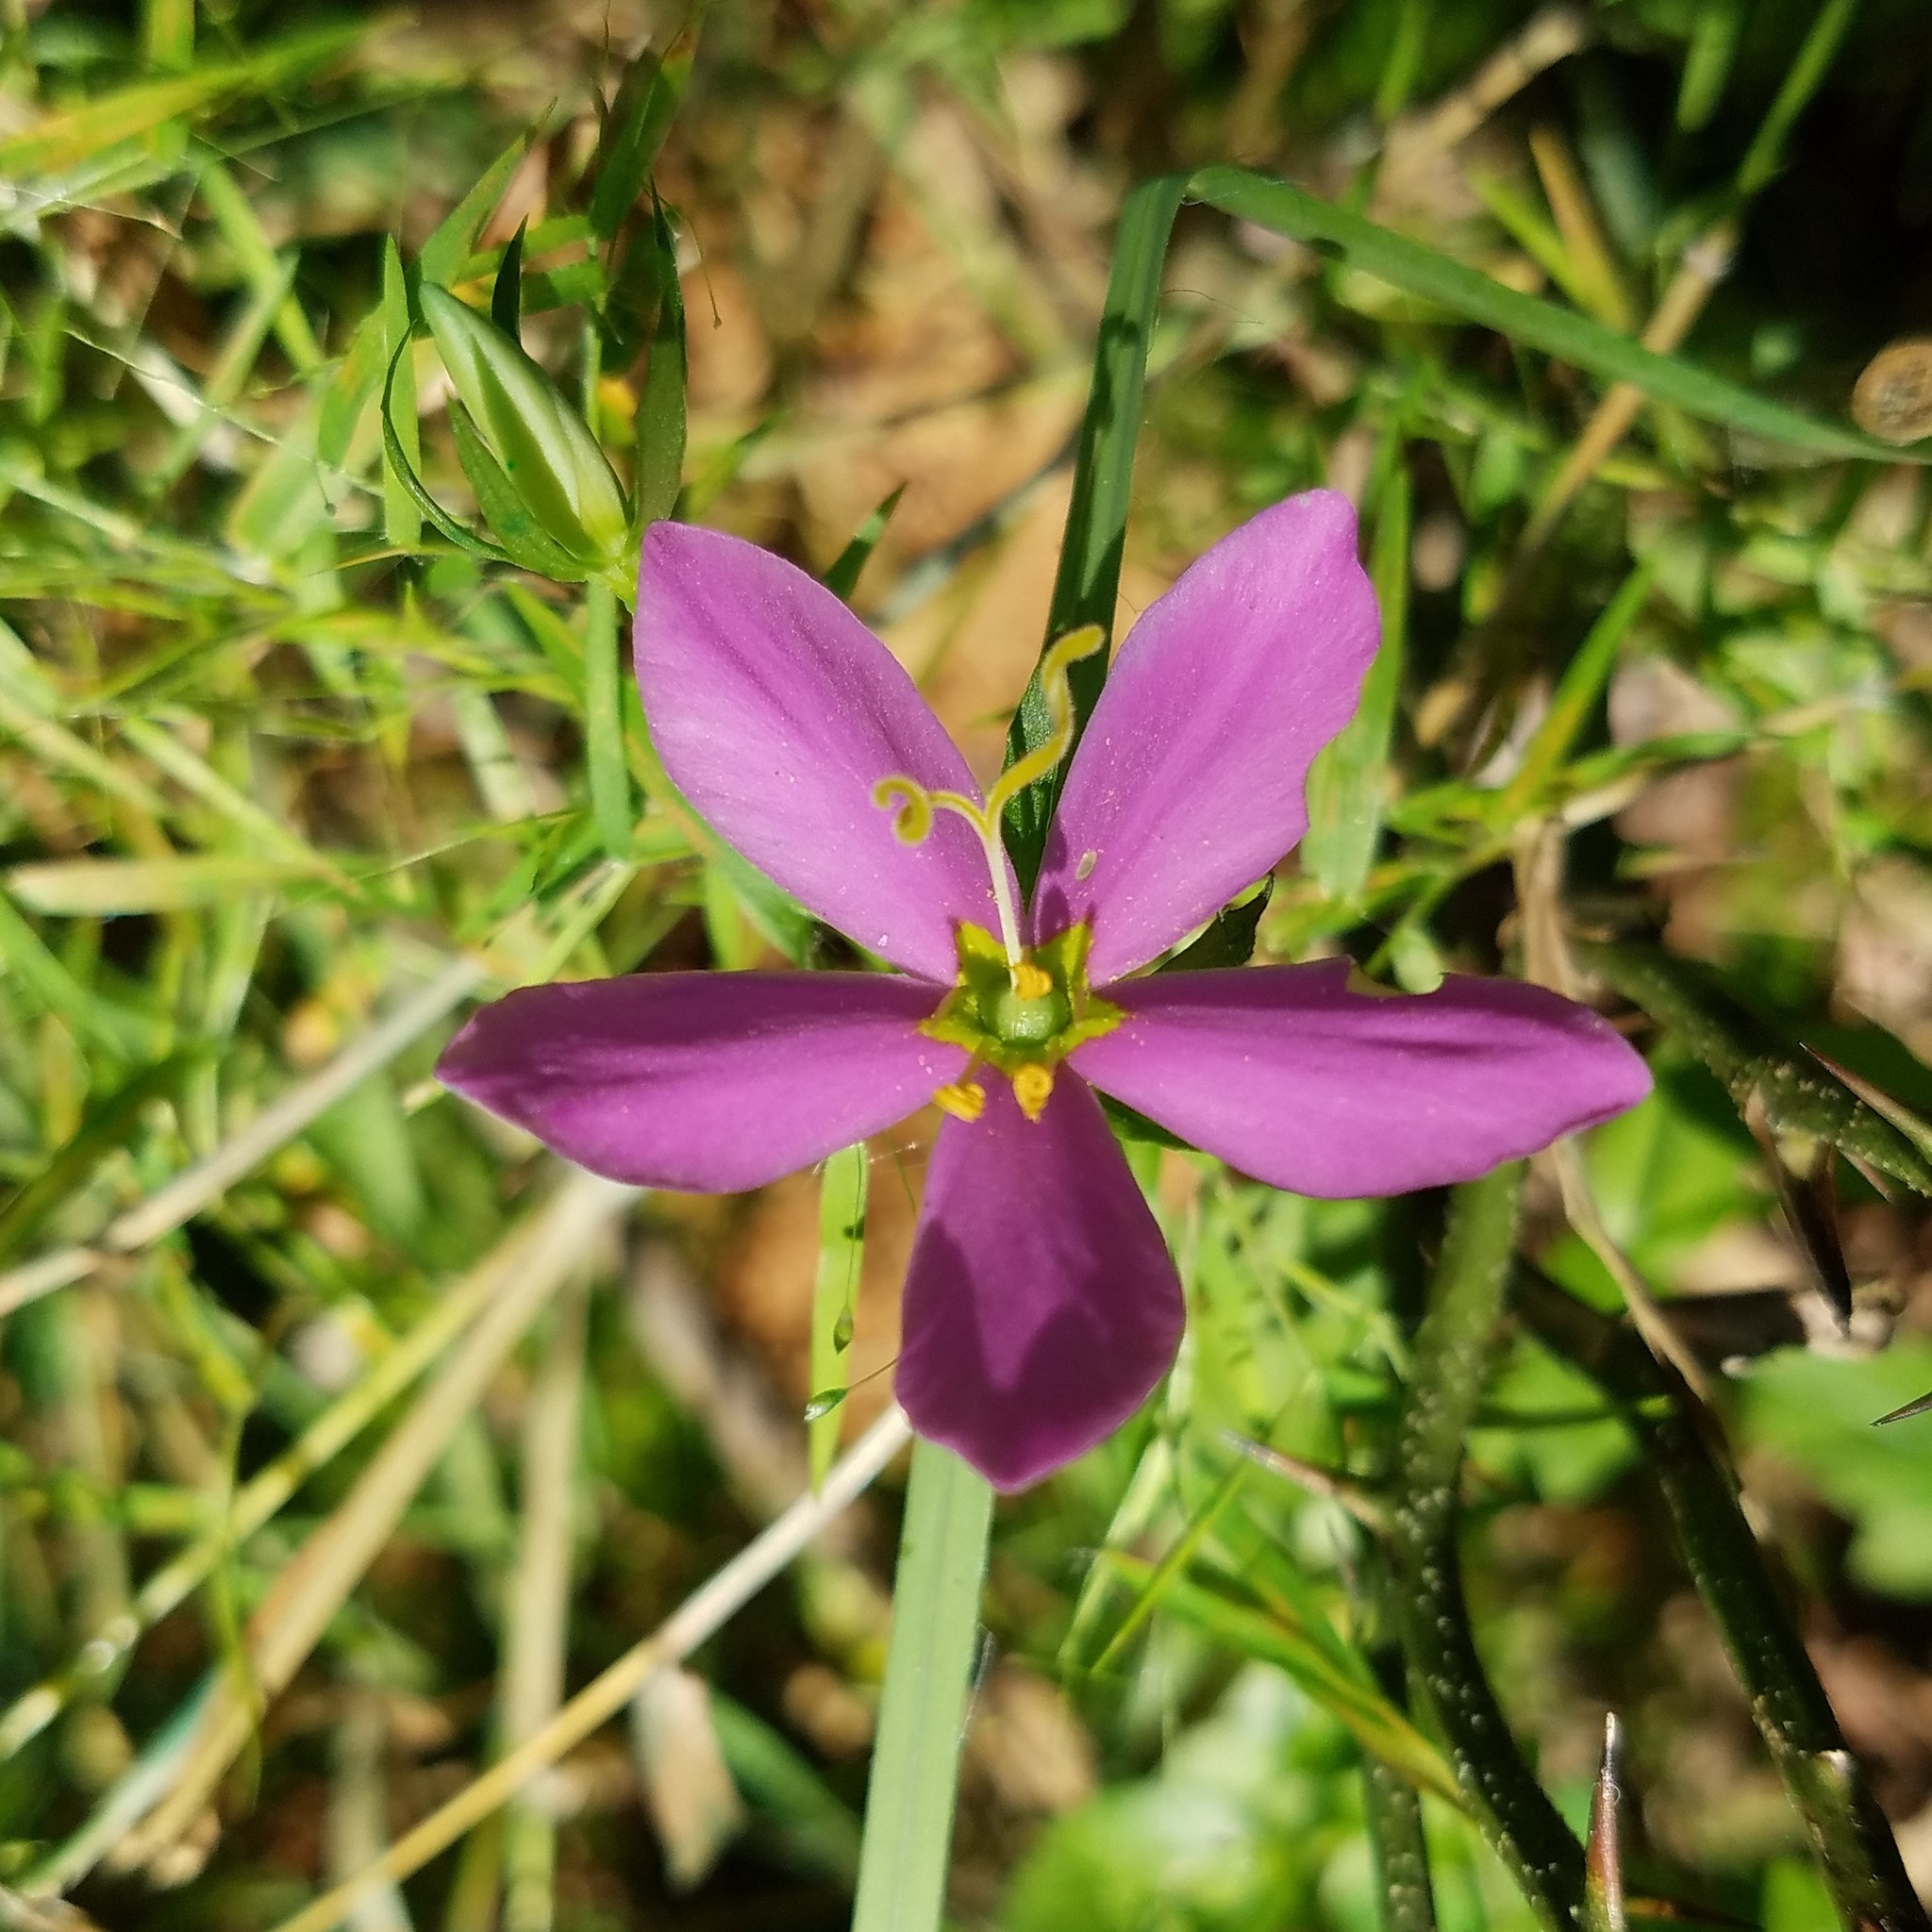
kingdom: Plantae
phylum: Tracheophyta
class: Magnoliopsida
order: Gentianales
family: Gentianaceae
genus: Sabatia
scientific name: Sabatia angularis
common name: Rose-pink
